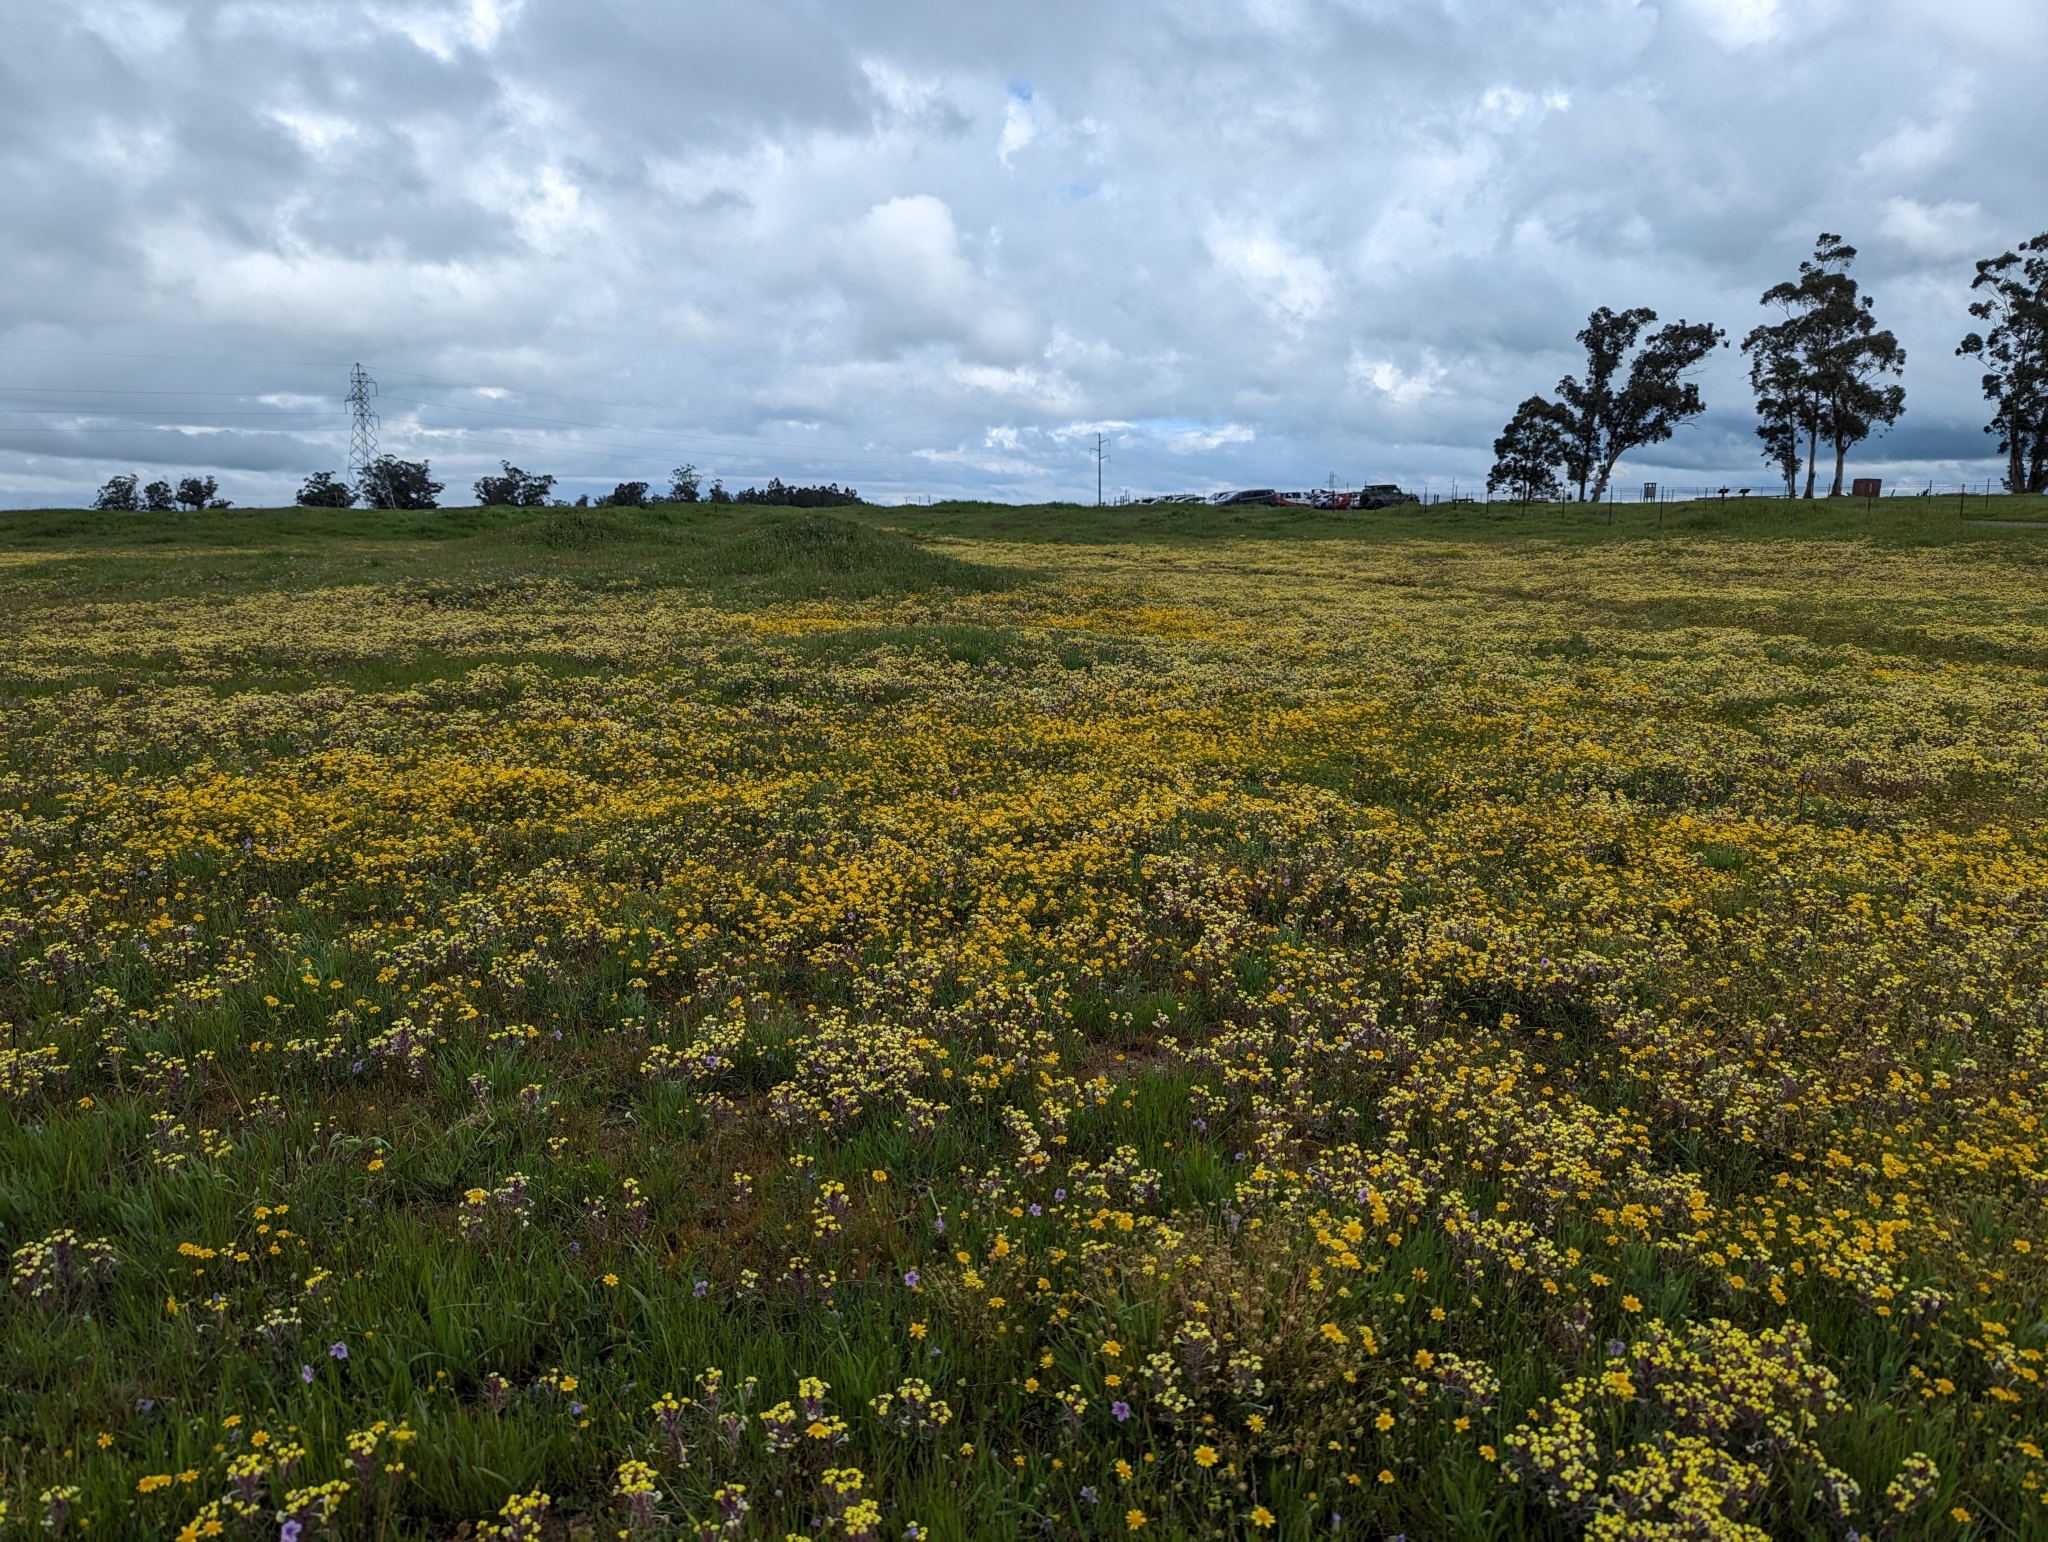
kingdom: Plantae
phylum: Tracheophyta
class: Magnoliopsida
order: Lamiales
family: Orobanchaceae
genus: Triphysaria
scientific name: Triphysaria eriantha
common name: Johnny-tuck
